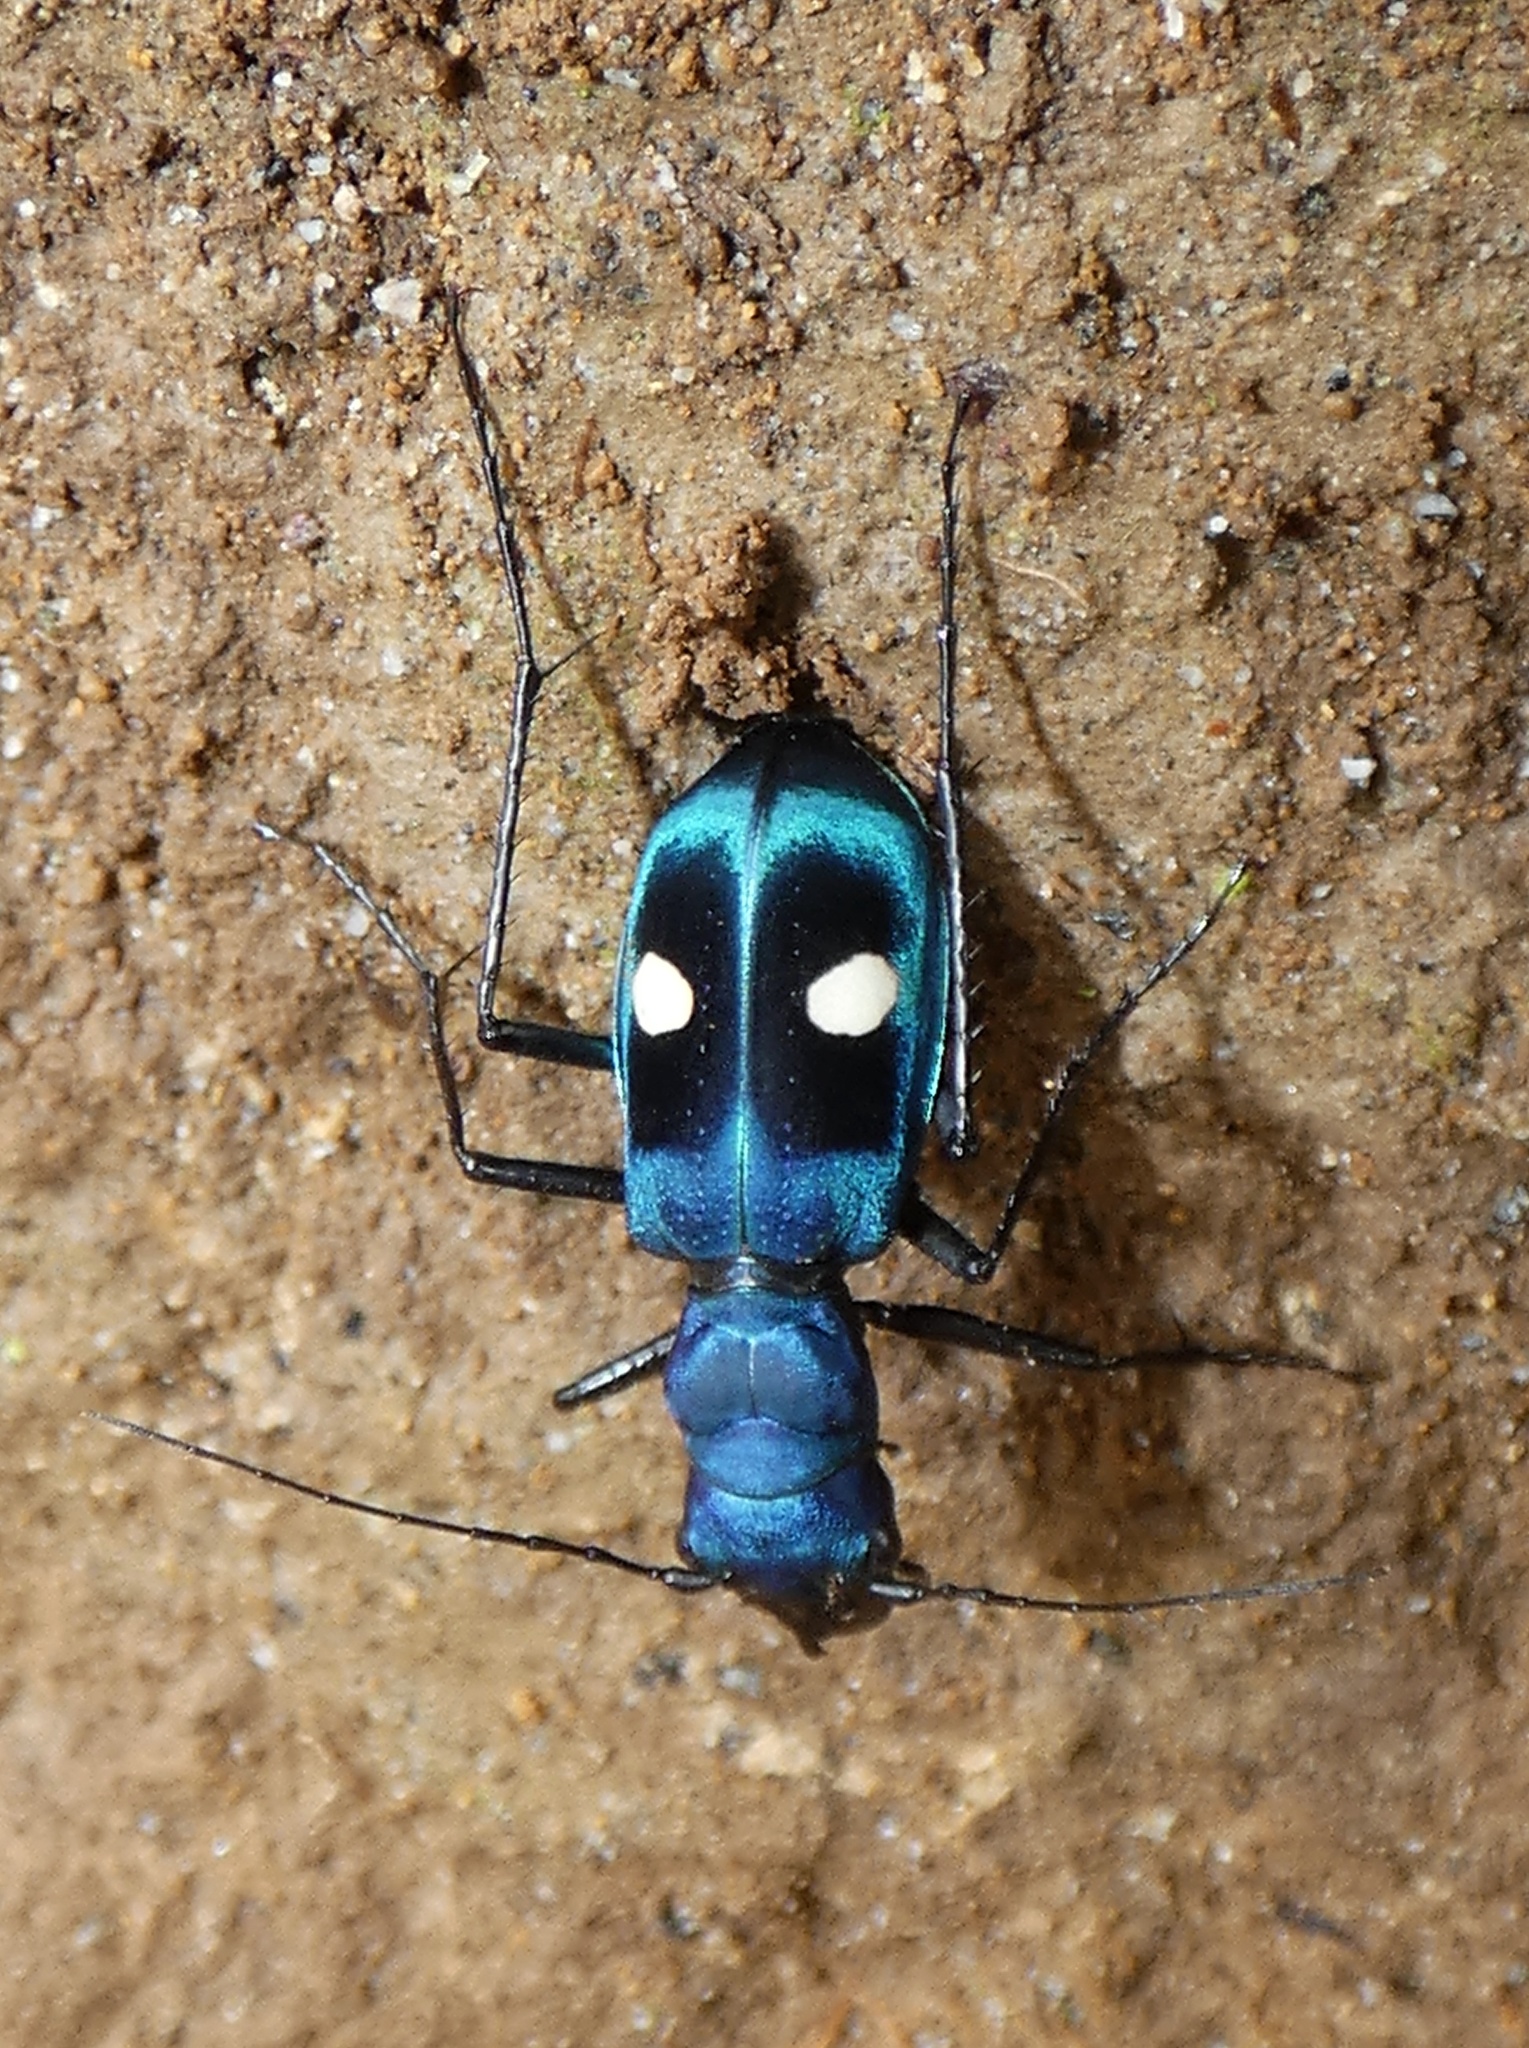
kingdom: Animalia
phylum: Arthropoda
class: Insecta
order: Coleoptera
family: Carabidae
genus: Pseudoxycheila
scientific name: Pseudoxycheila tarsalis
